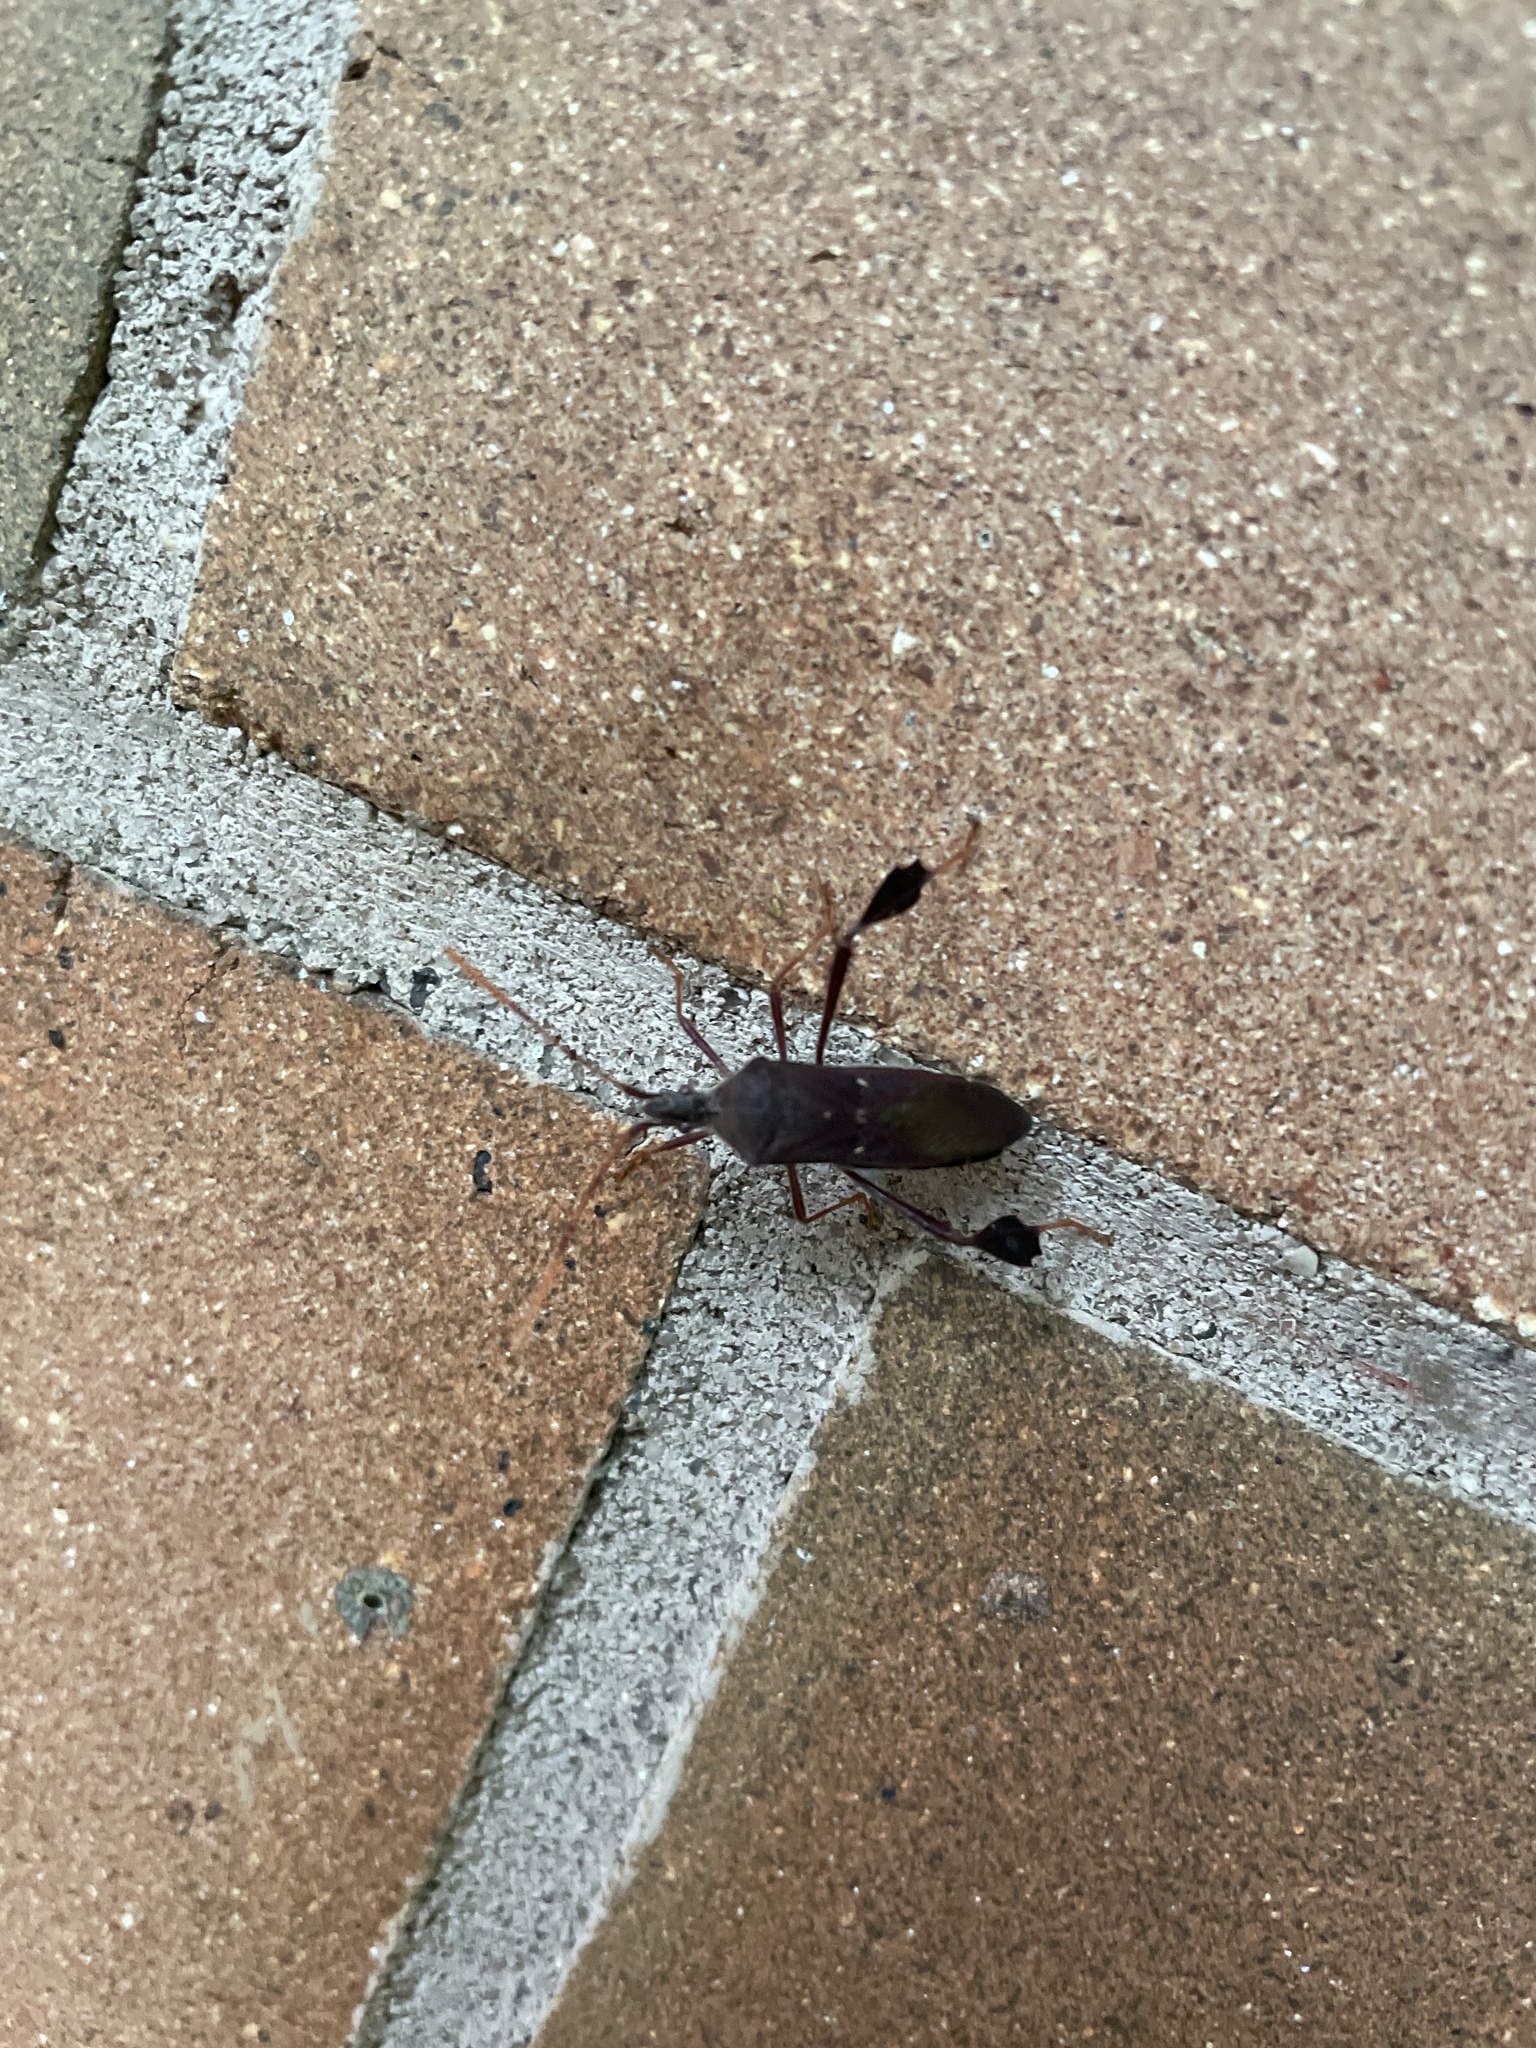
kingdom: Animalia
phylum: Arthropoda
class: Insecta
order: Hemiptera
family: Coreidae
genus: Leptoglossus
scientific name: Leptoglossus oppositus
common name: Northern leaf-footed bug
